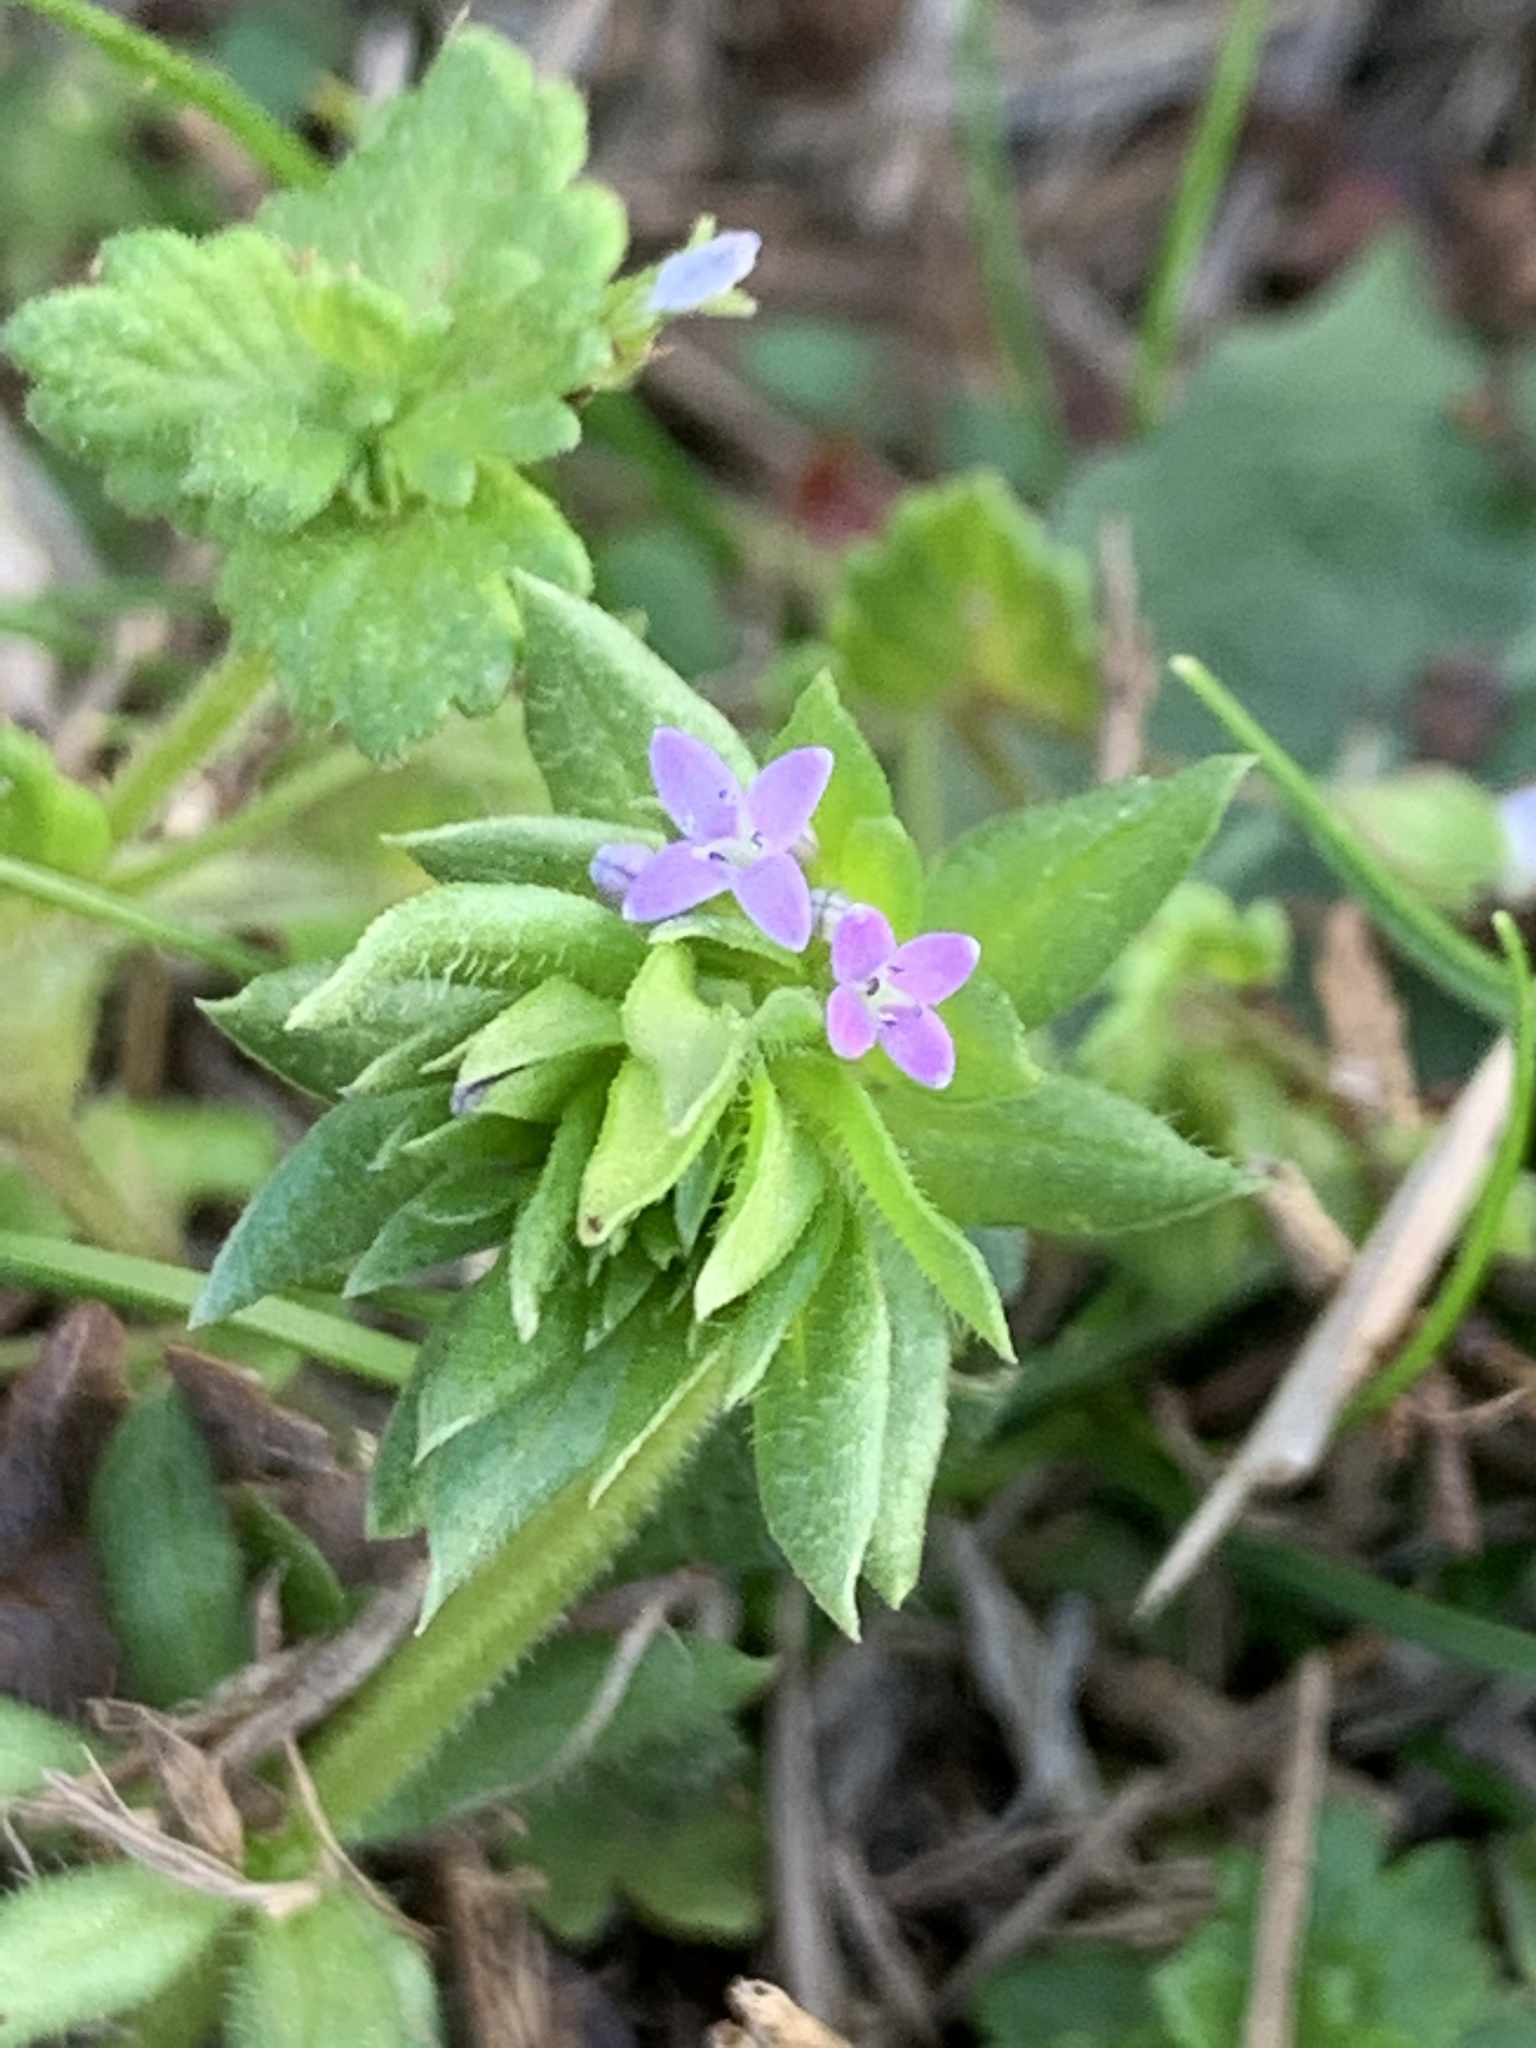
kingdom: Plantae
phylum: Tracheophyta
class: Magnoliopsida
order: Gentianales
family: Rubiaceae
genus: Sherardia
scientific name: Sherardia arvensis
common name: Field madder
